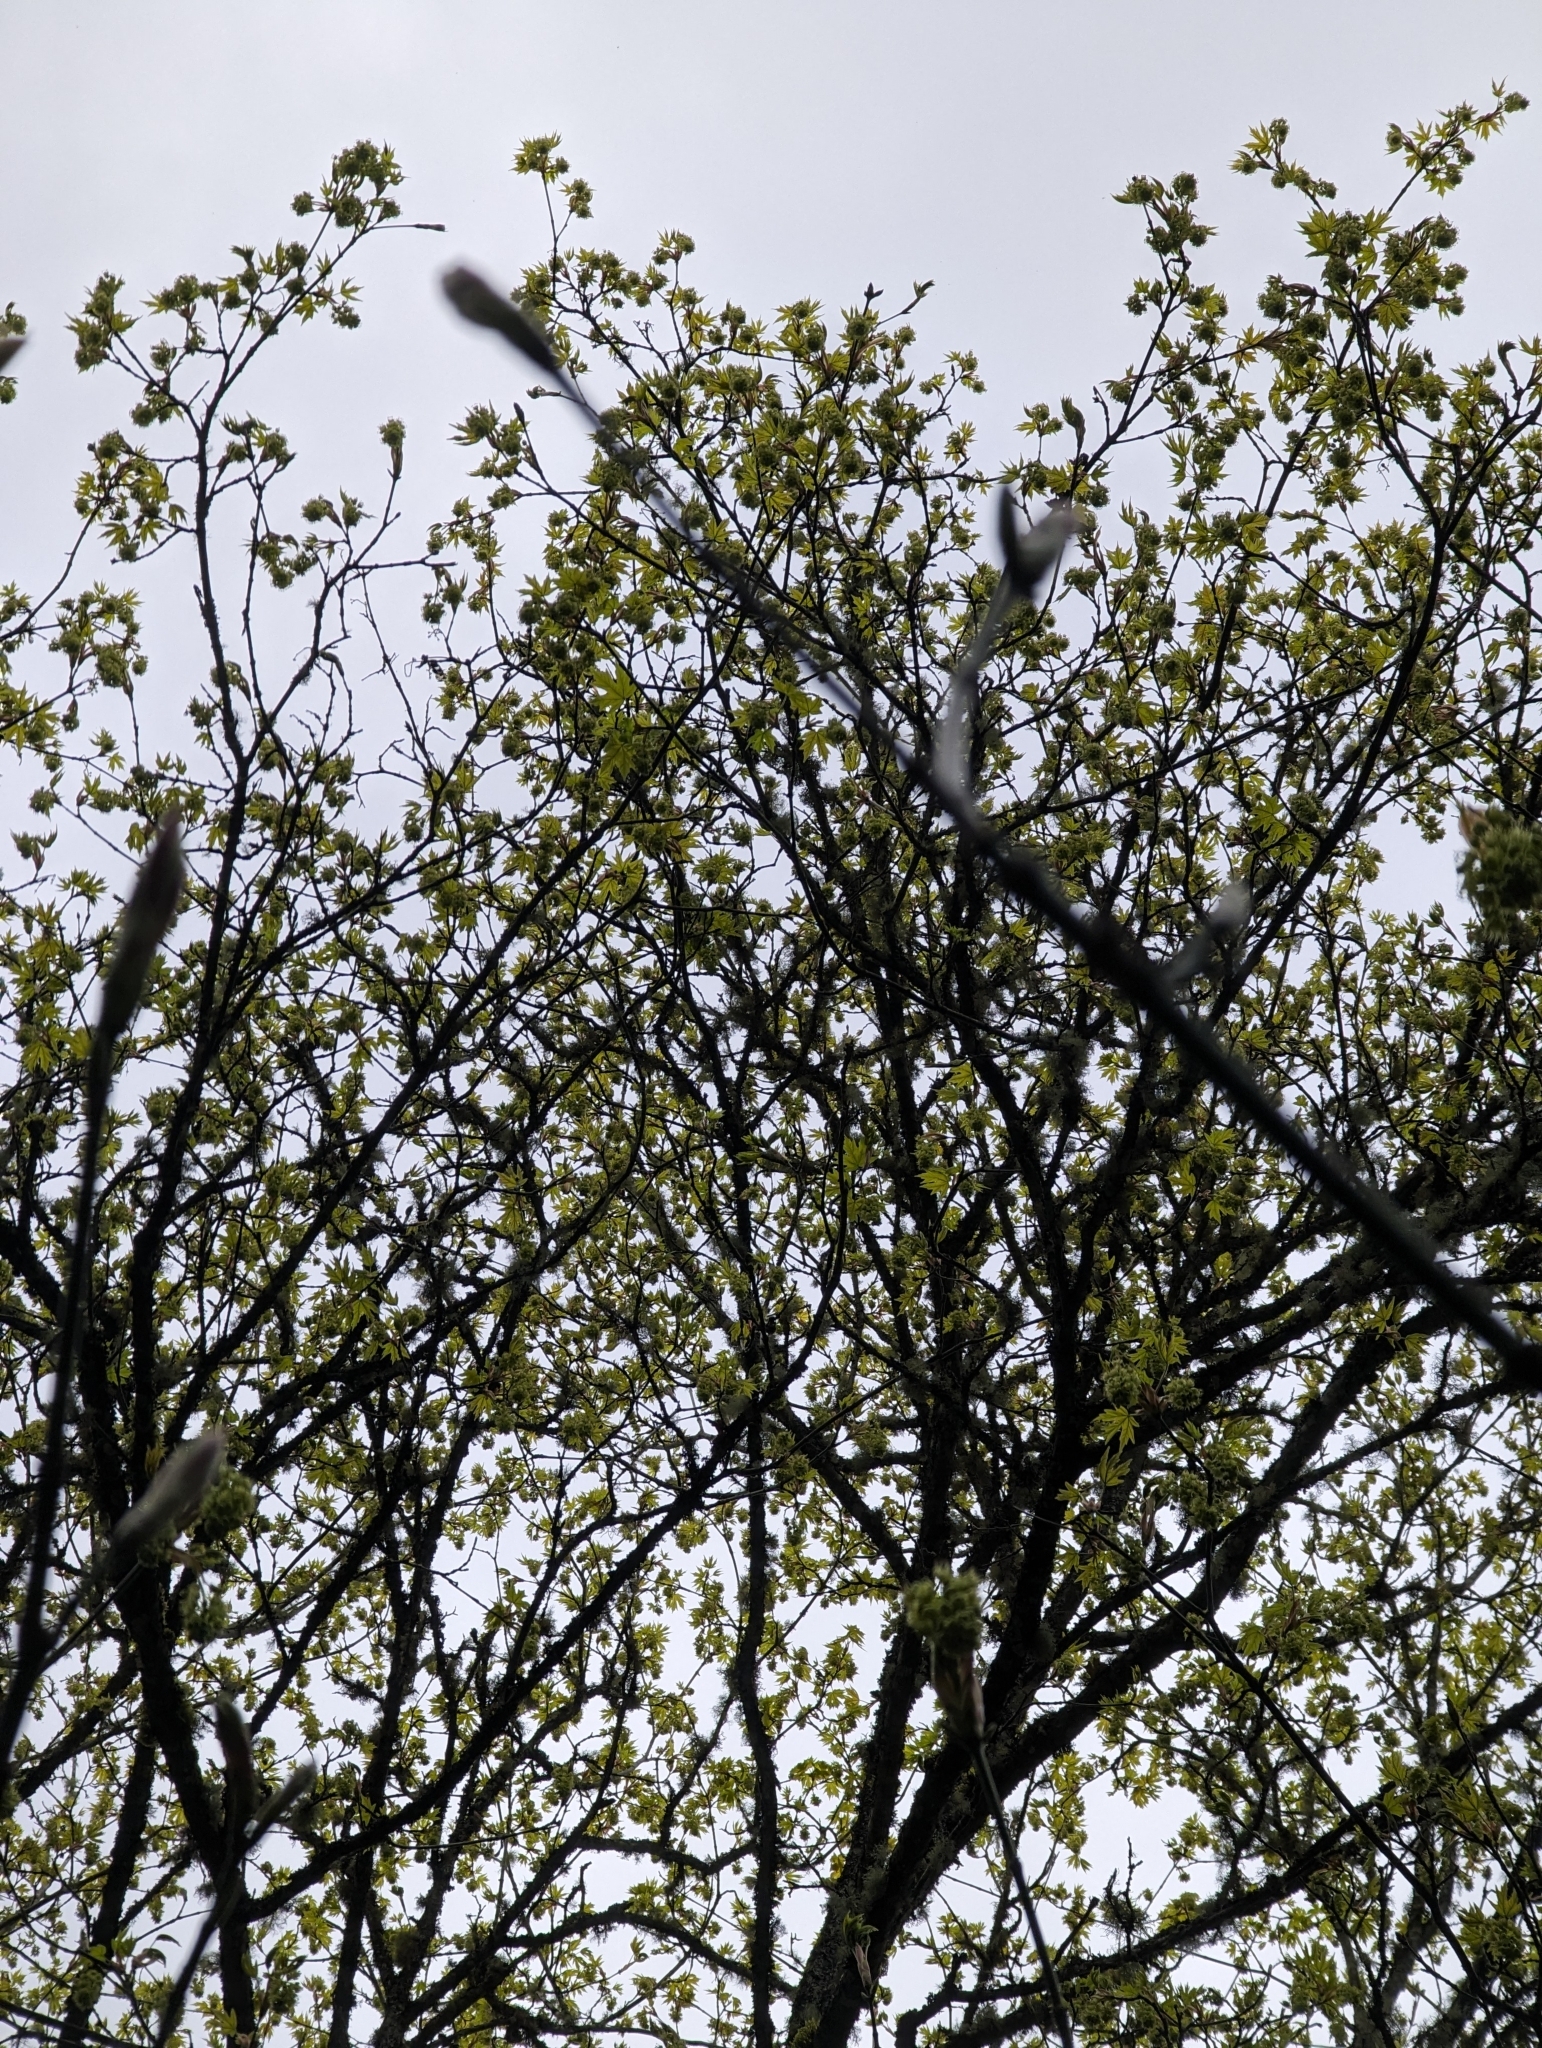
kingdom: Plantae
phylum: Tracheophyta
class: Magnoliopsida
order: Sapindales
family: Sapindaceae
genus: Acer
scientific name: Acer macrophyllum
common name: Oregon maple
